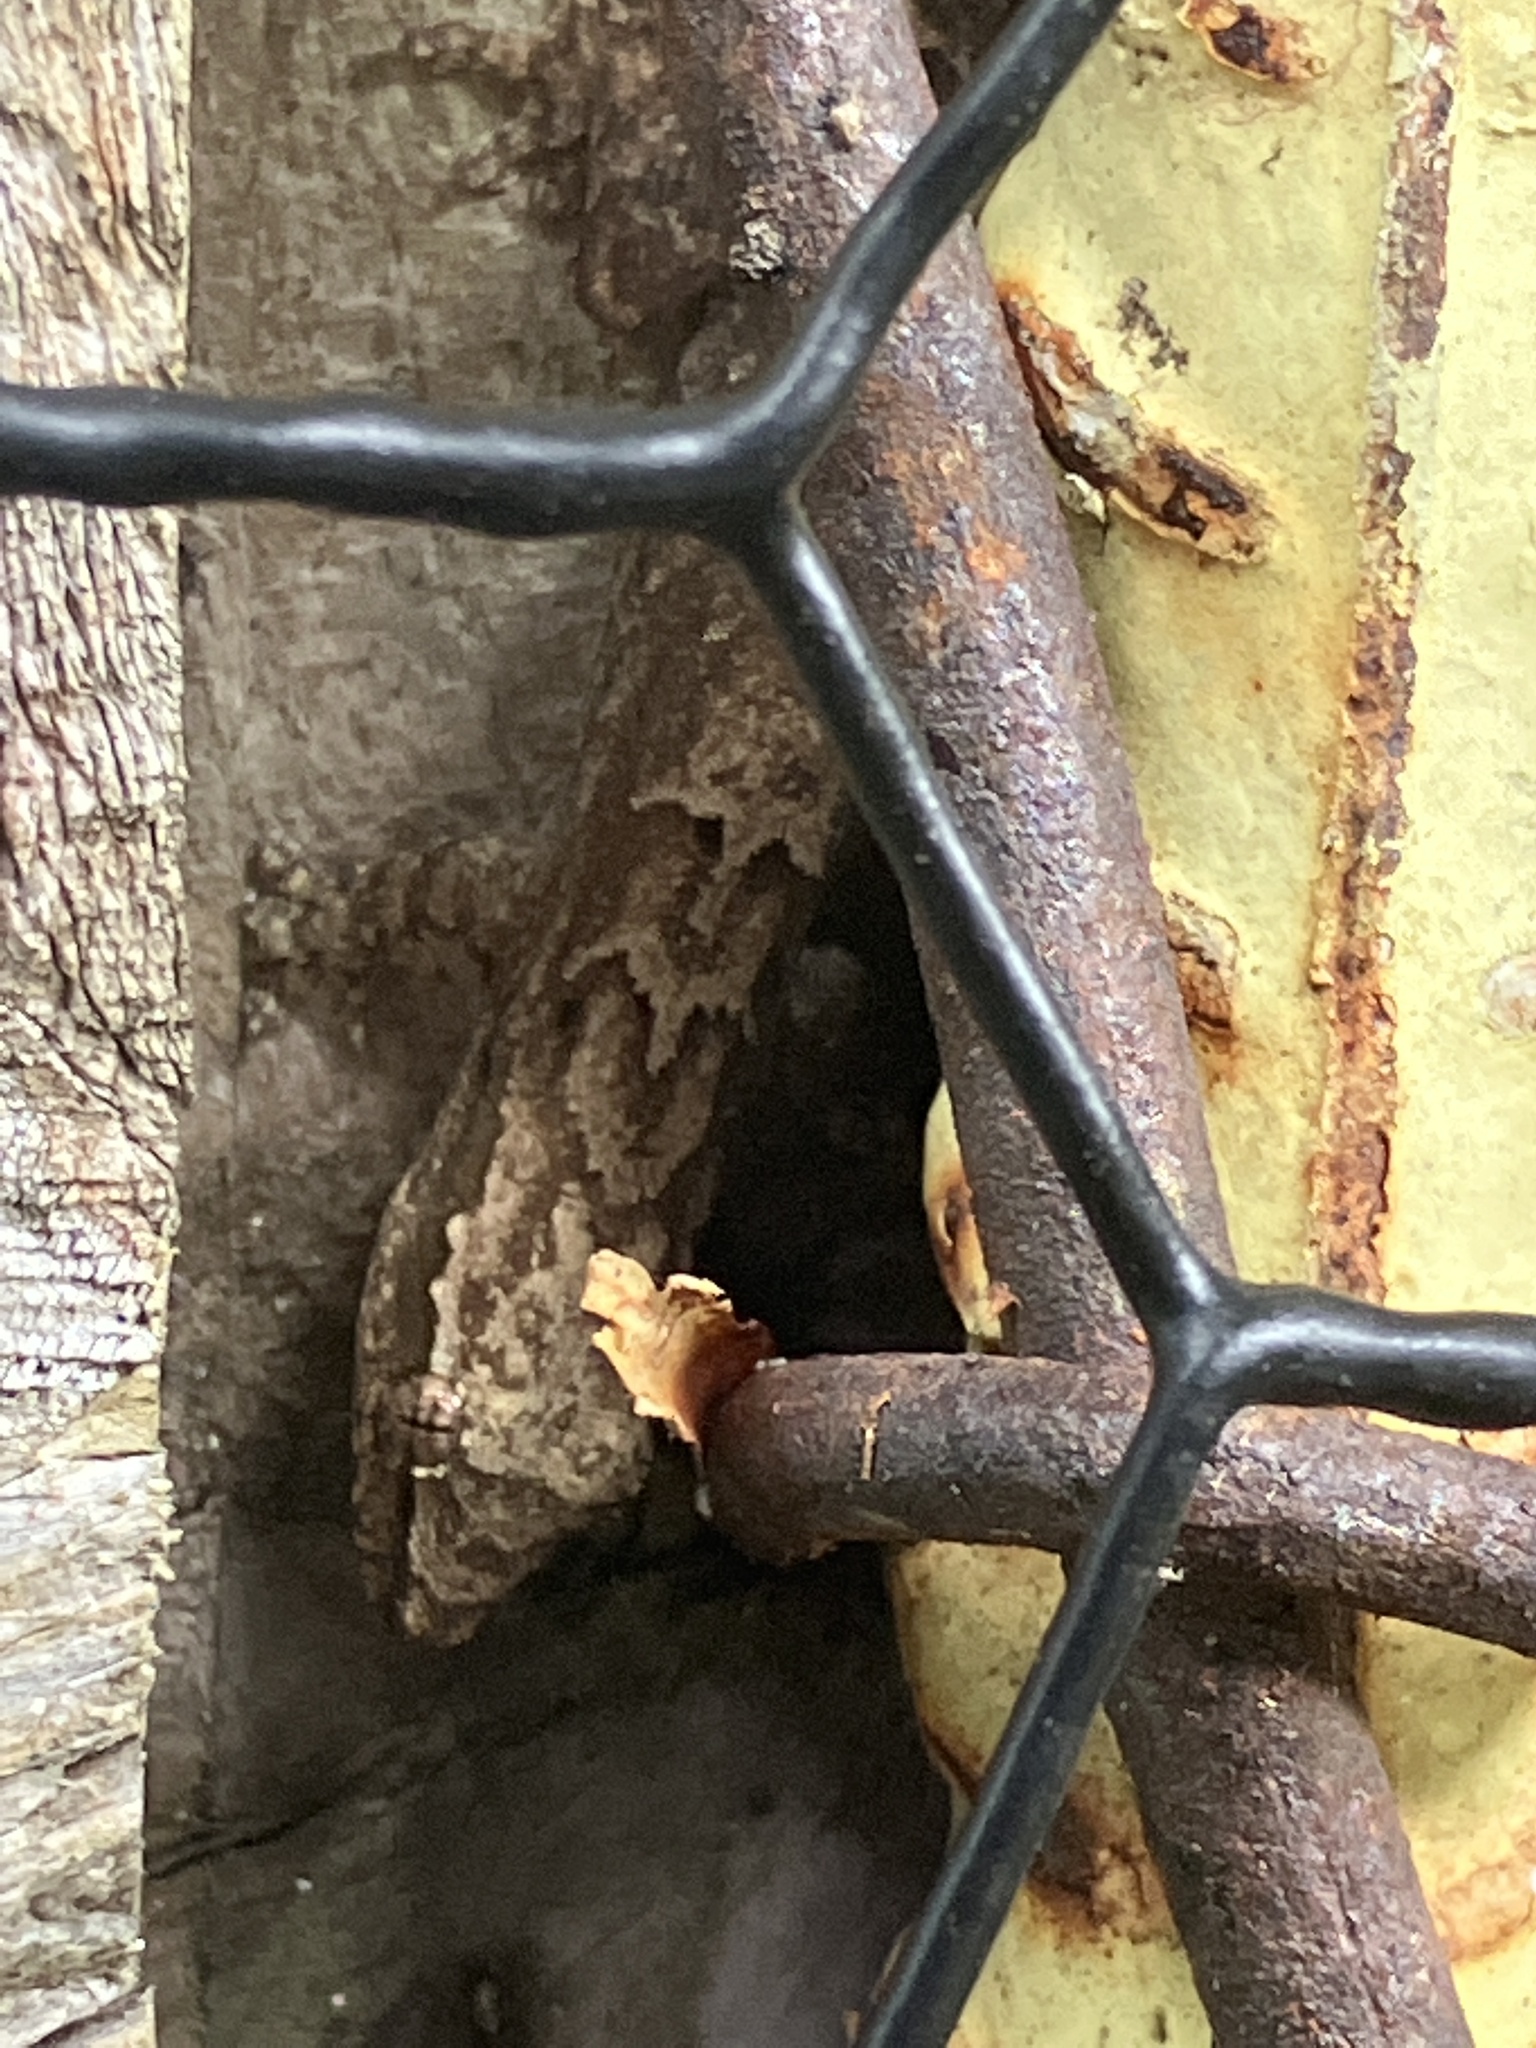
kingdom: Animalia
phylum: Chordata
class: Squamata
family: Gekkonidae
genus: Lepidodactylus
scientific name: Lepidodactylus lugubris
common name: Mourning gecko
